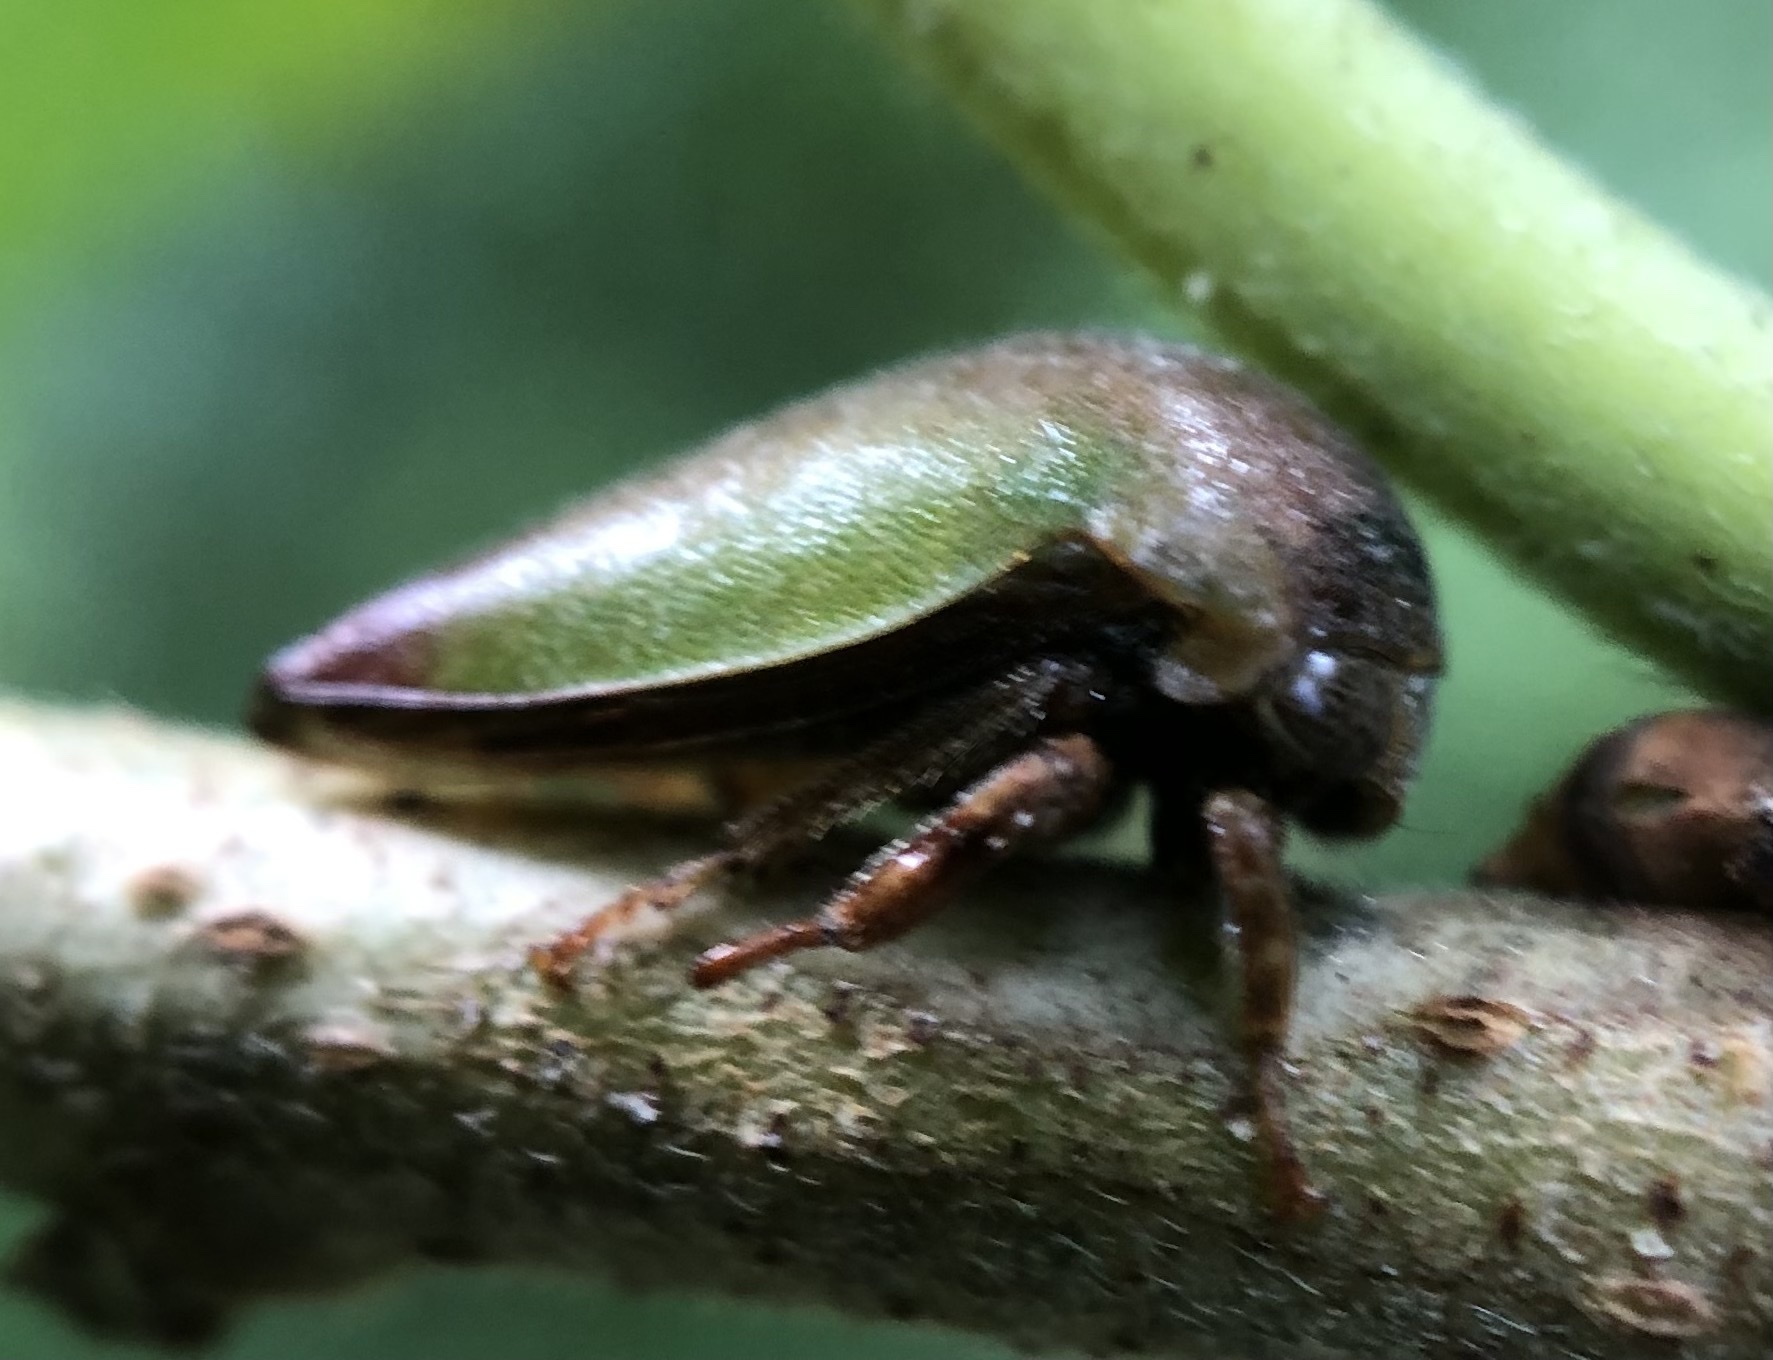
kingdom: Animalia
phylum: Arthropoda
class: Insecta
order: Hemiptera
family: Membracidae
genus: Hebetica
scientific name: Hebetica
